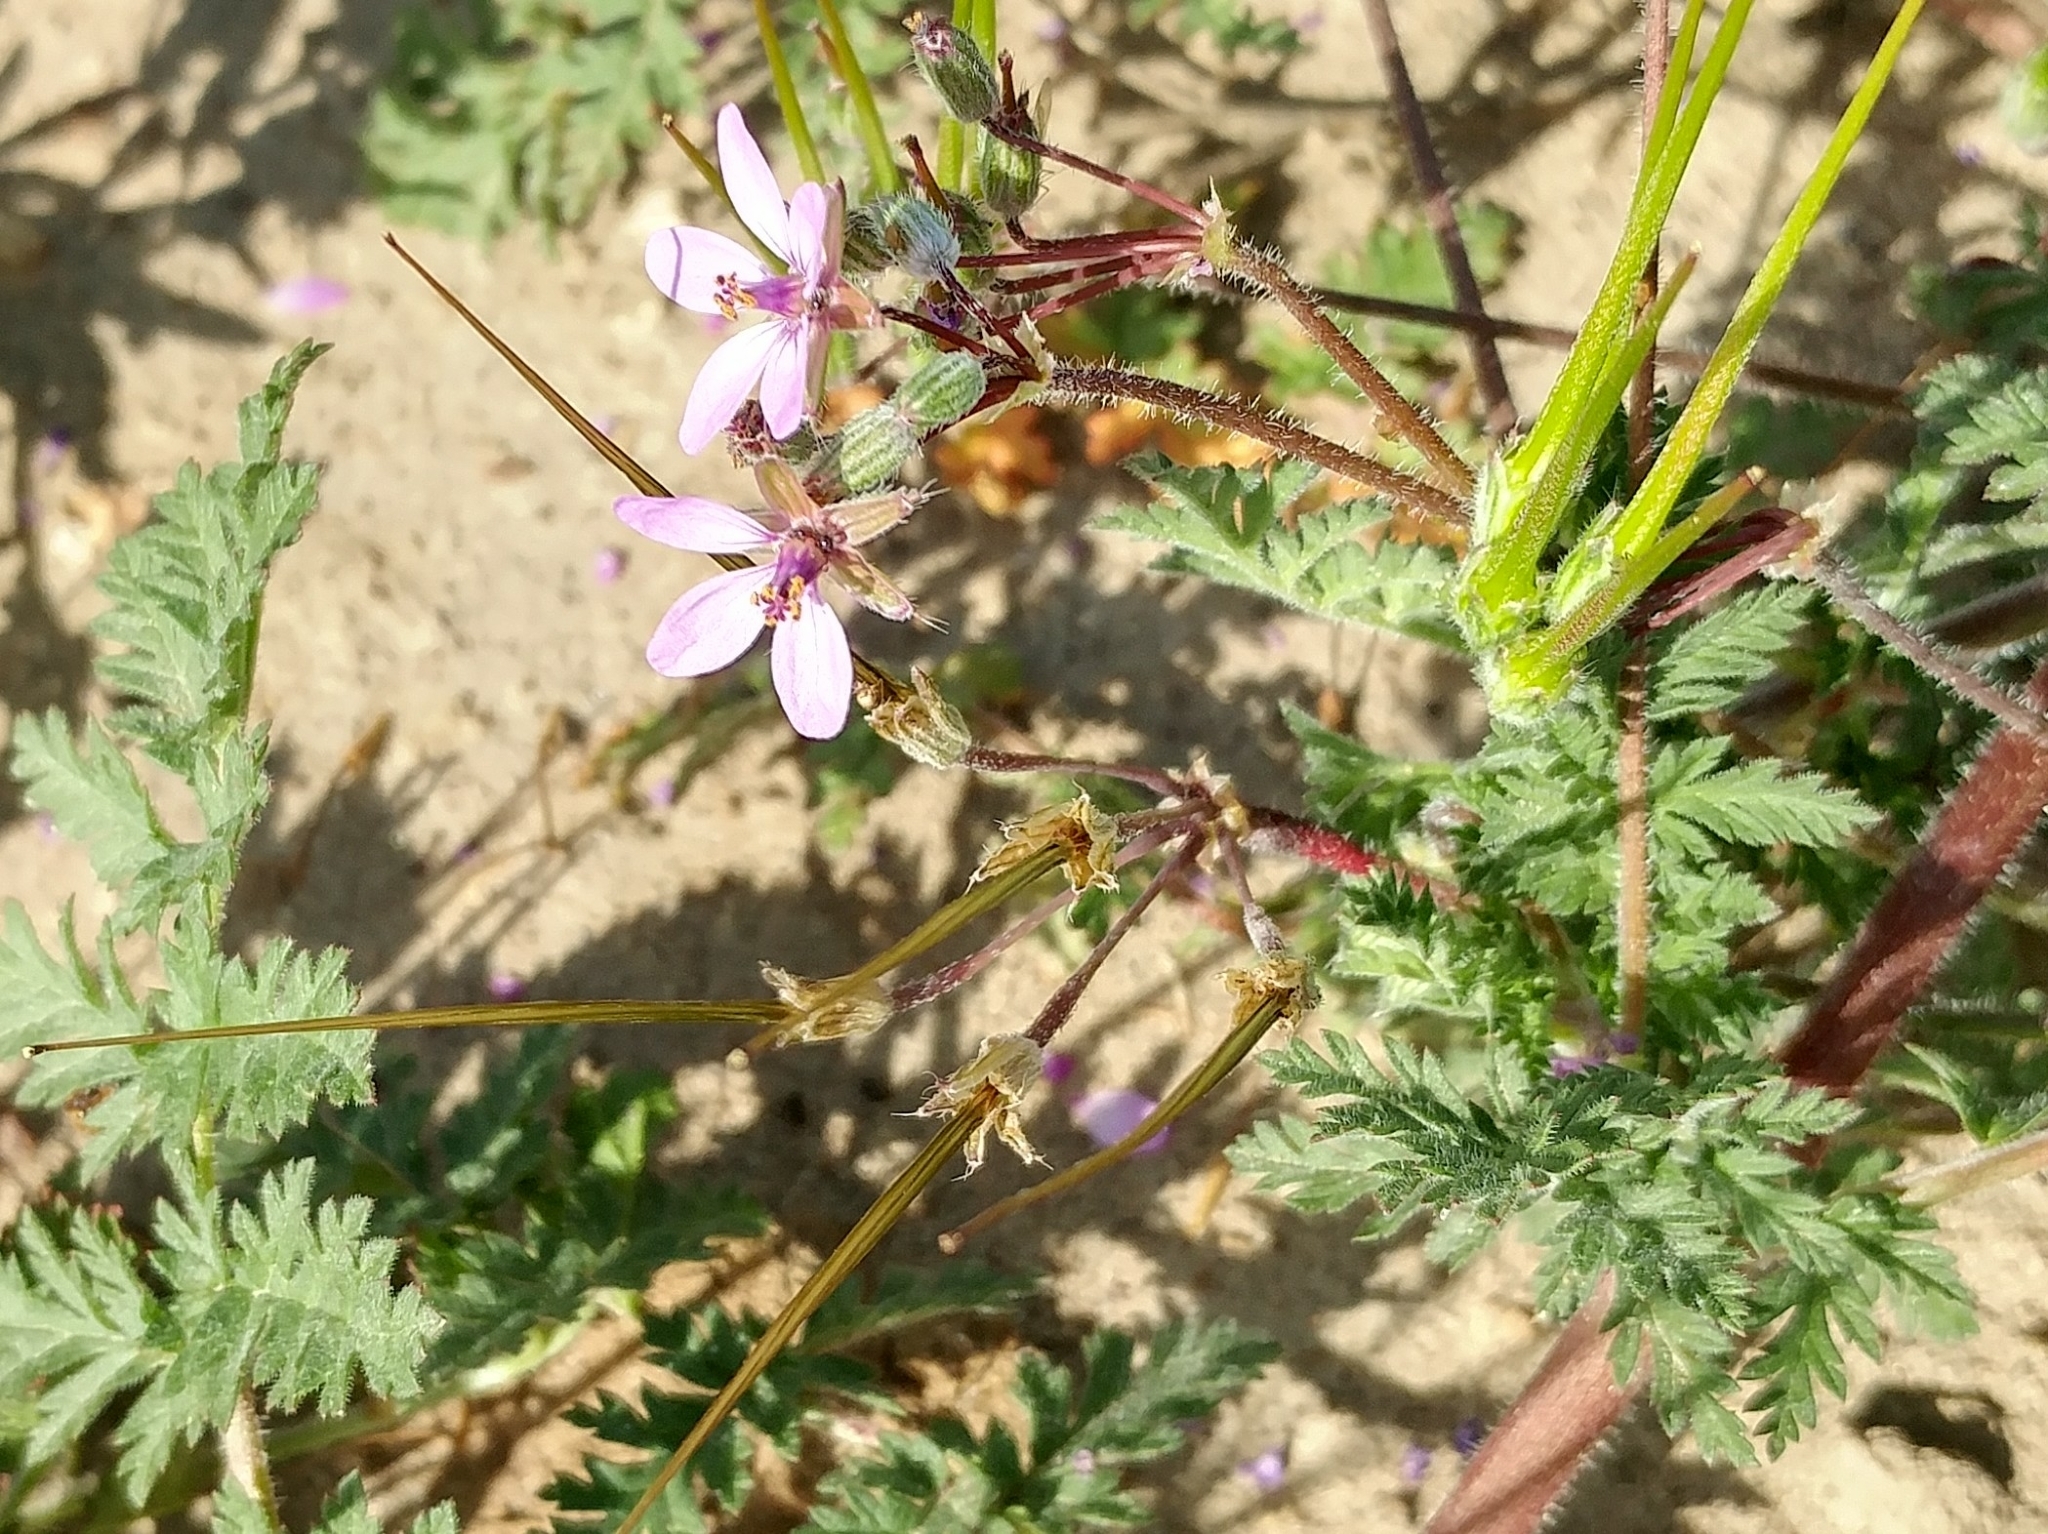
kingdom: Plantae
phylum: Tracheophyta
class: Magnoliopsida
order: Geraniales
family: Geraniaceae
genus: Erodium
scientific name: Erodium cicutarium
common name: Common stork's-bill
